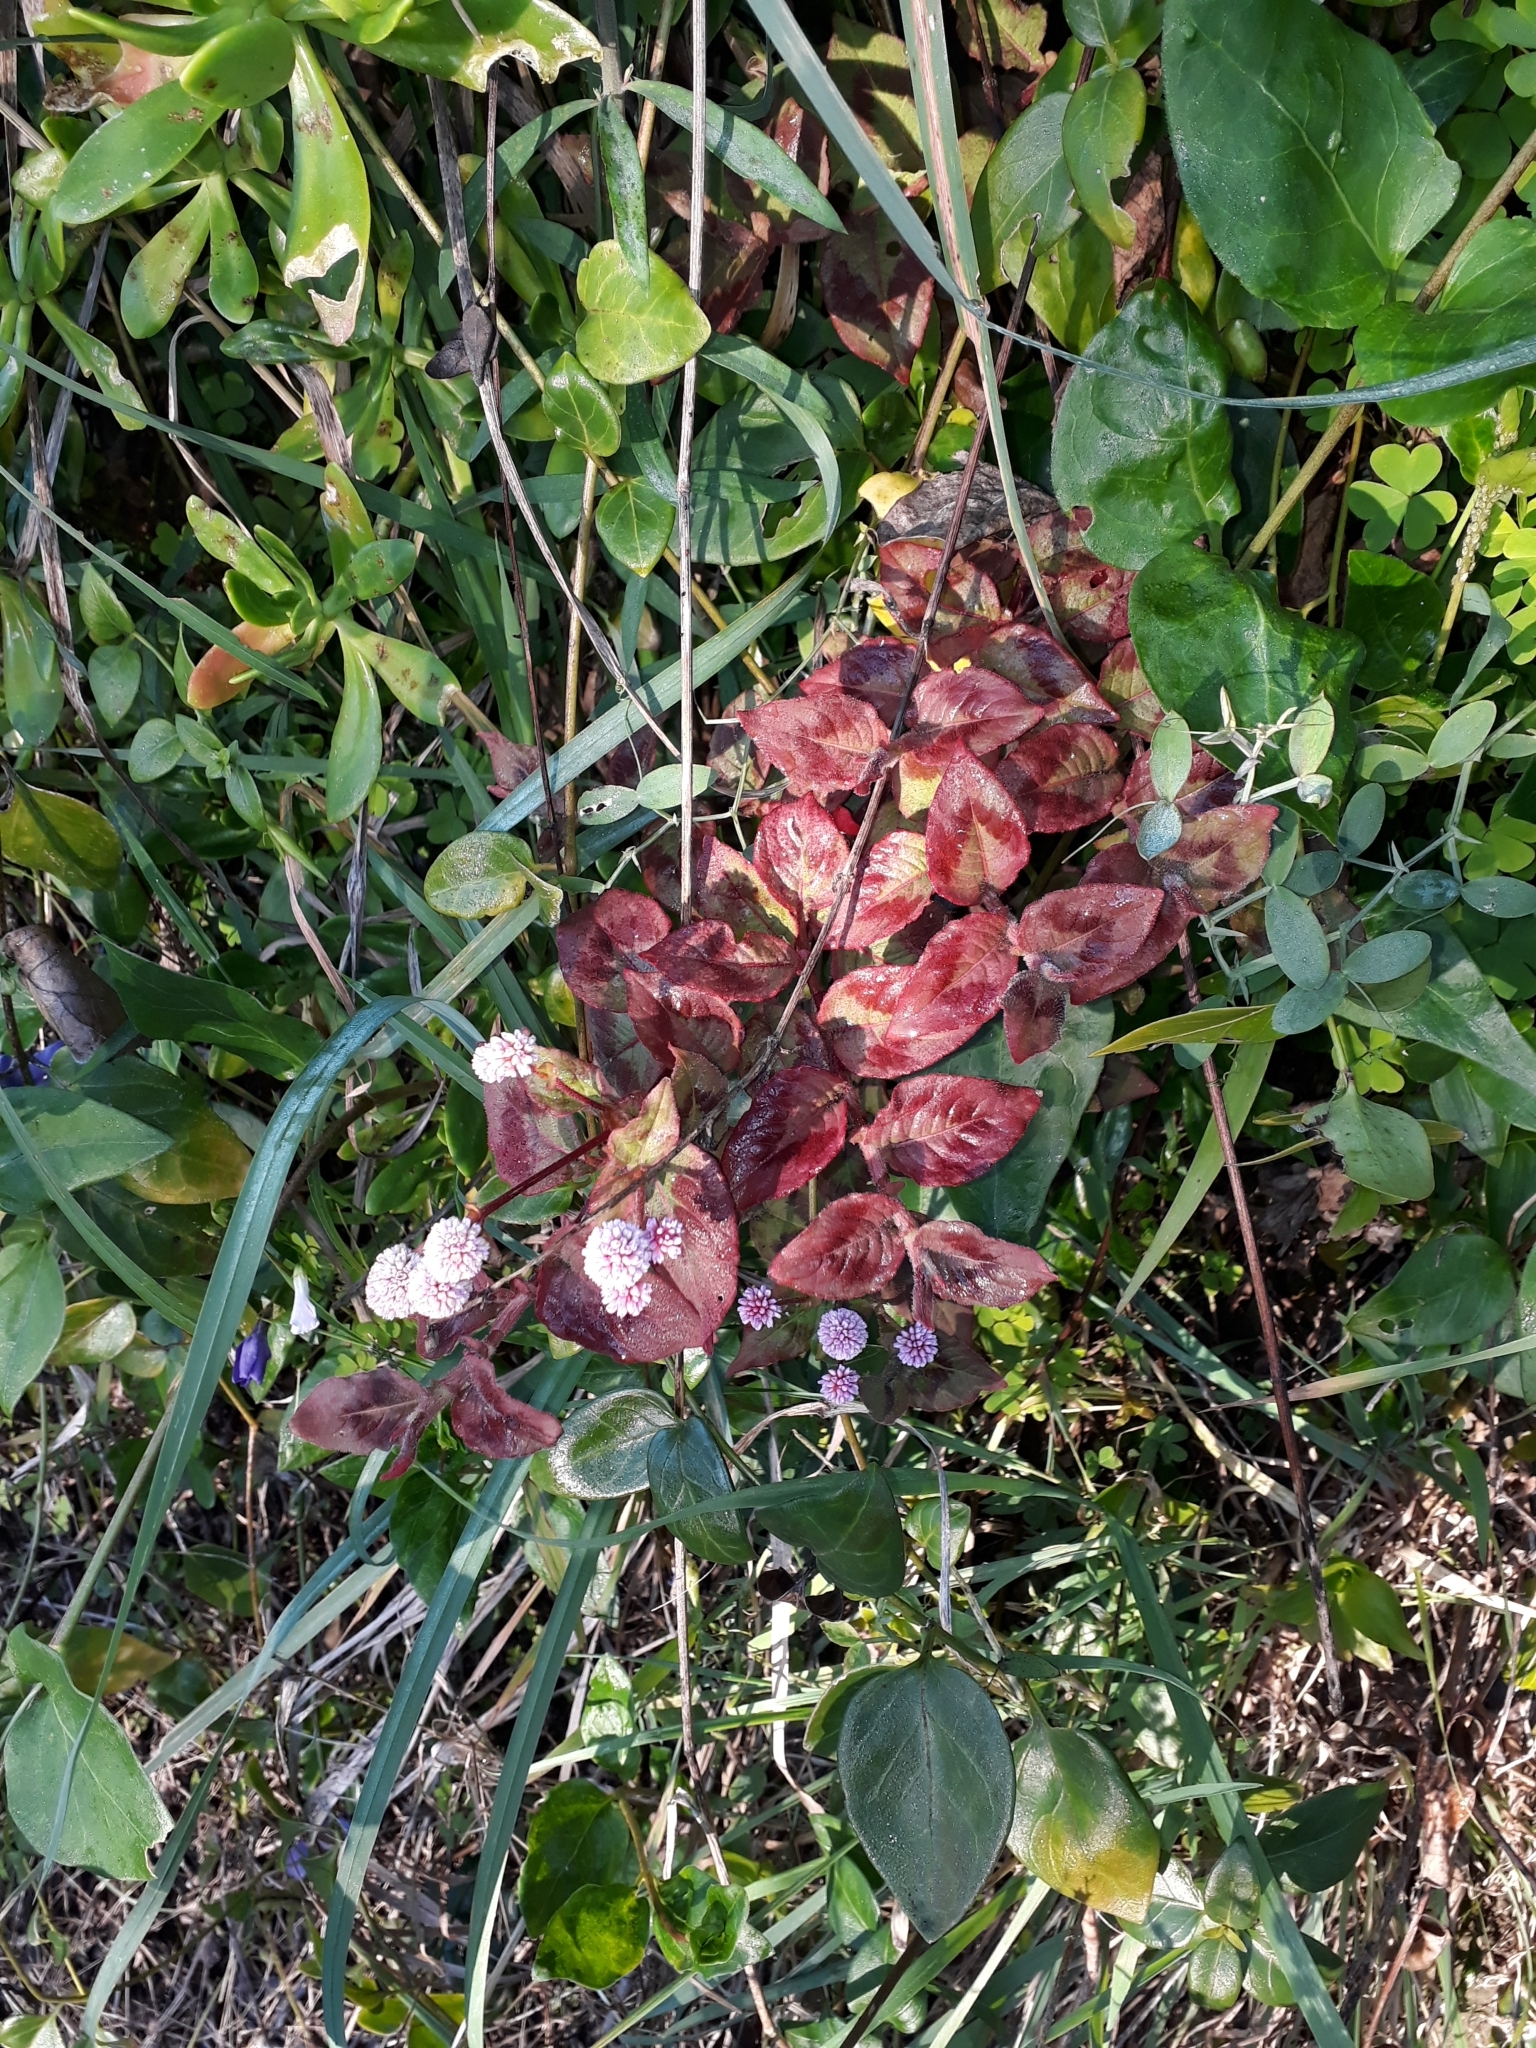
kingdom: Plantae
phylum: Tracheophyta
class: Magnoliopsida
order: Caryophyllales
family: Polygonaceae
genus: Persicaria
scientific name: Persicaria capitata
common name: Pinkhead smartweed
